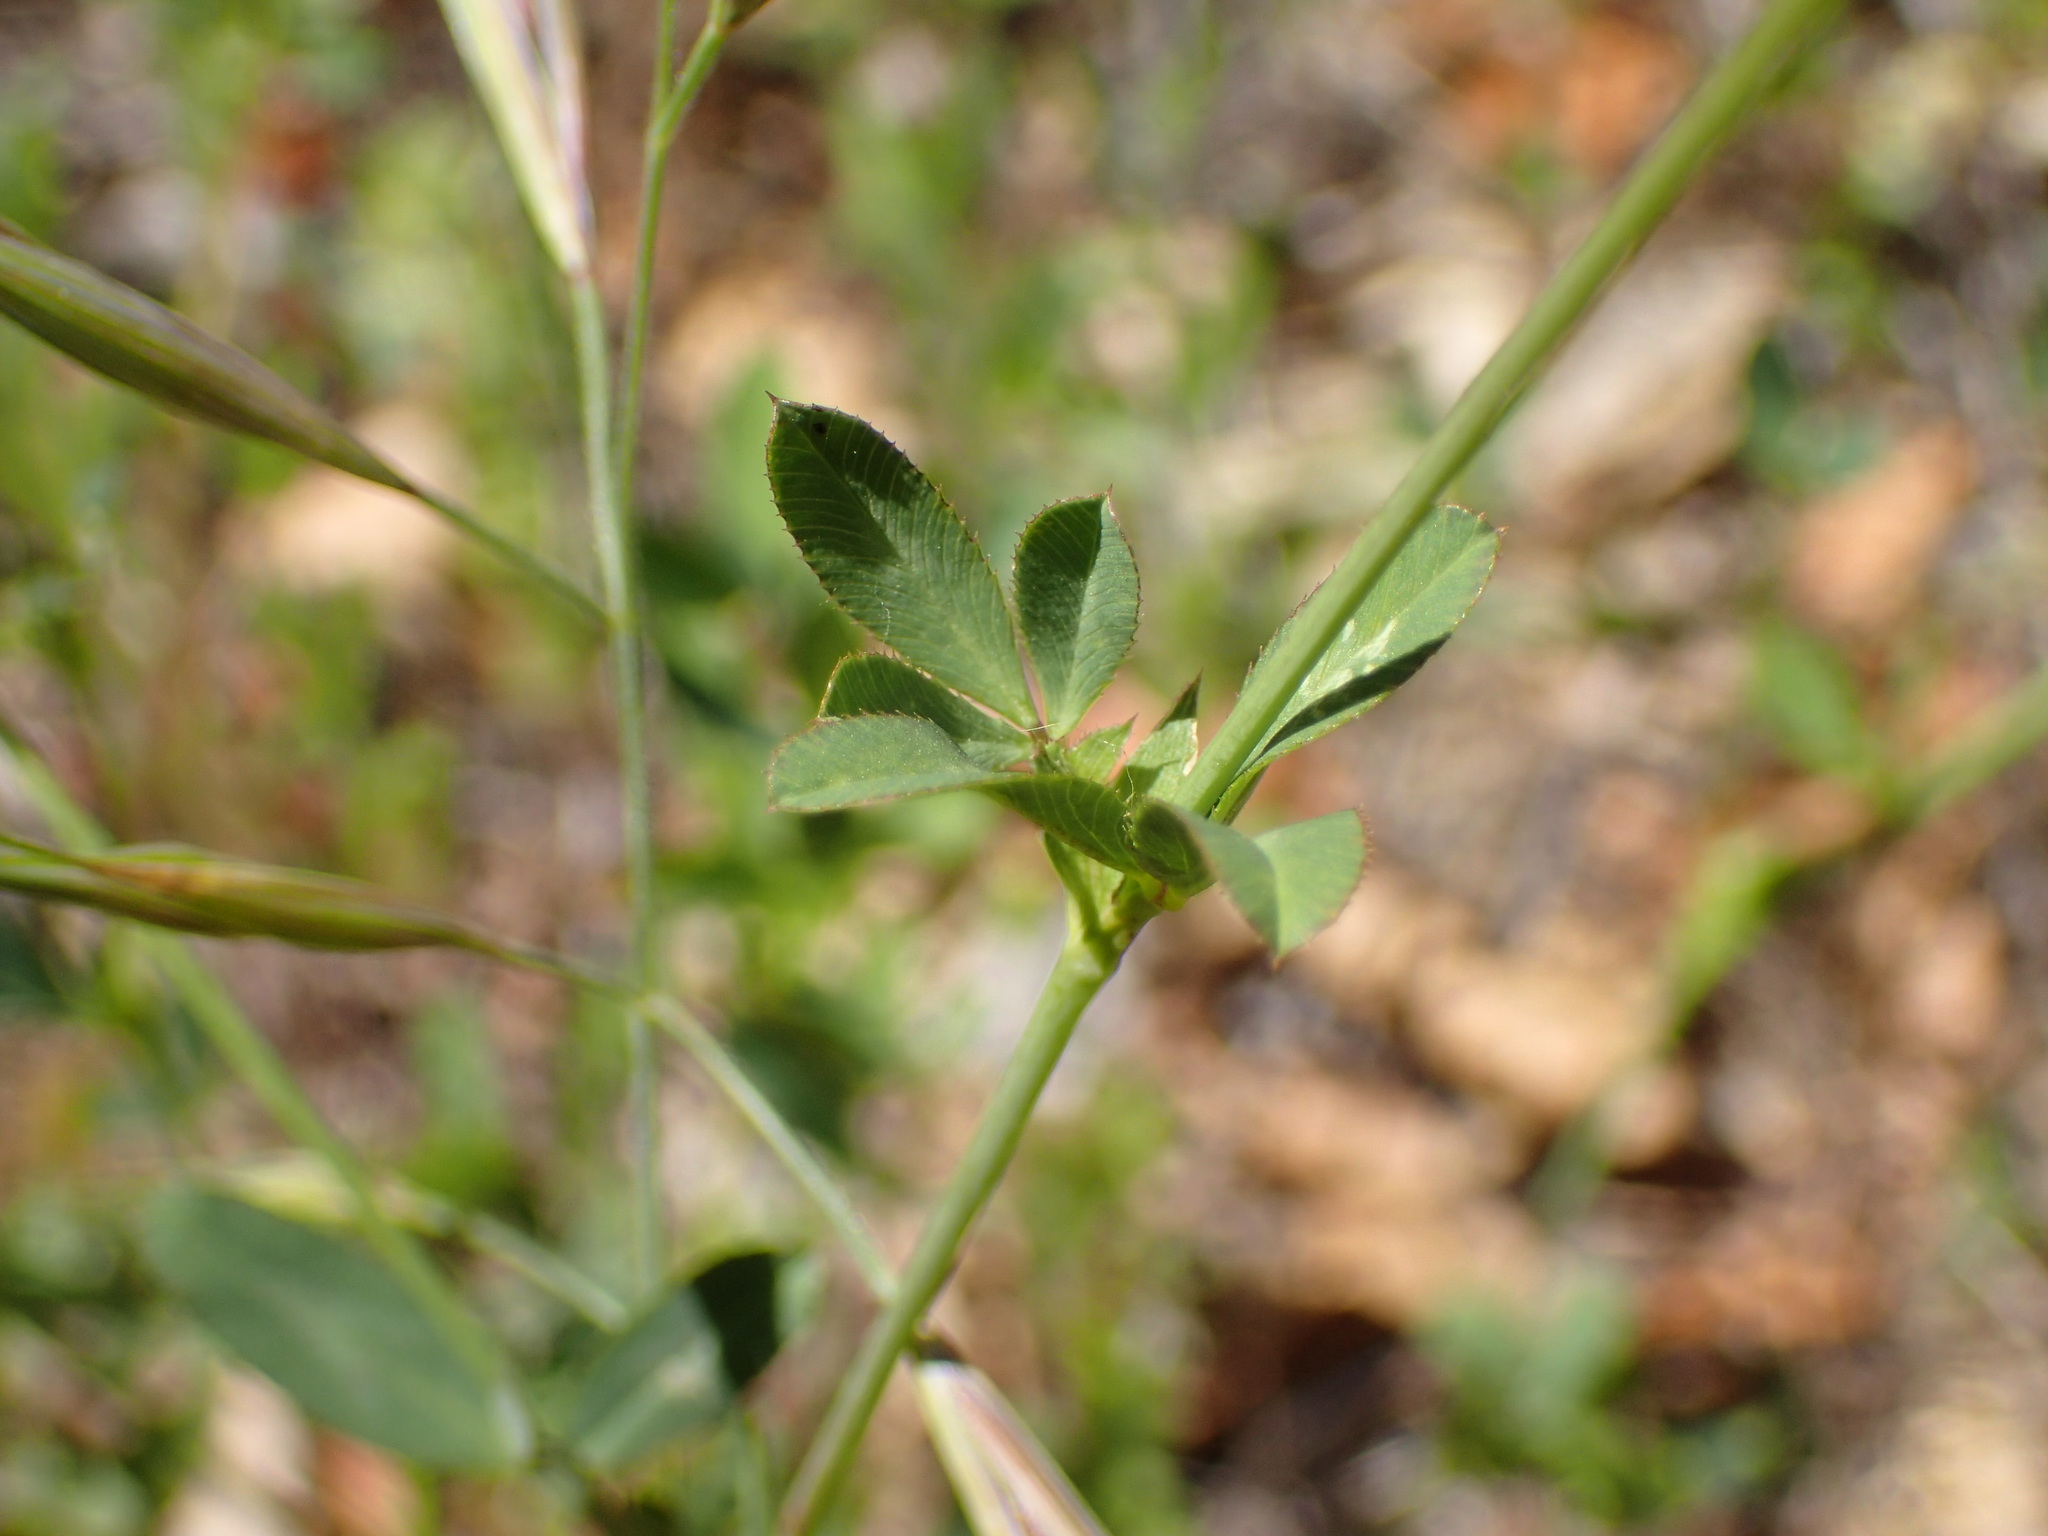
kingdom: Plantae
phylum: Tracheophyta
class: Magnoliopsida
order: Fabales
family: Fabaceae
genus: Trifolium
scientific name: Trifolium ciliolatum
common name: Foothill clover
